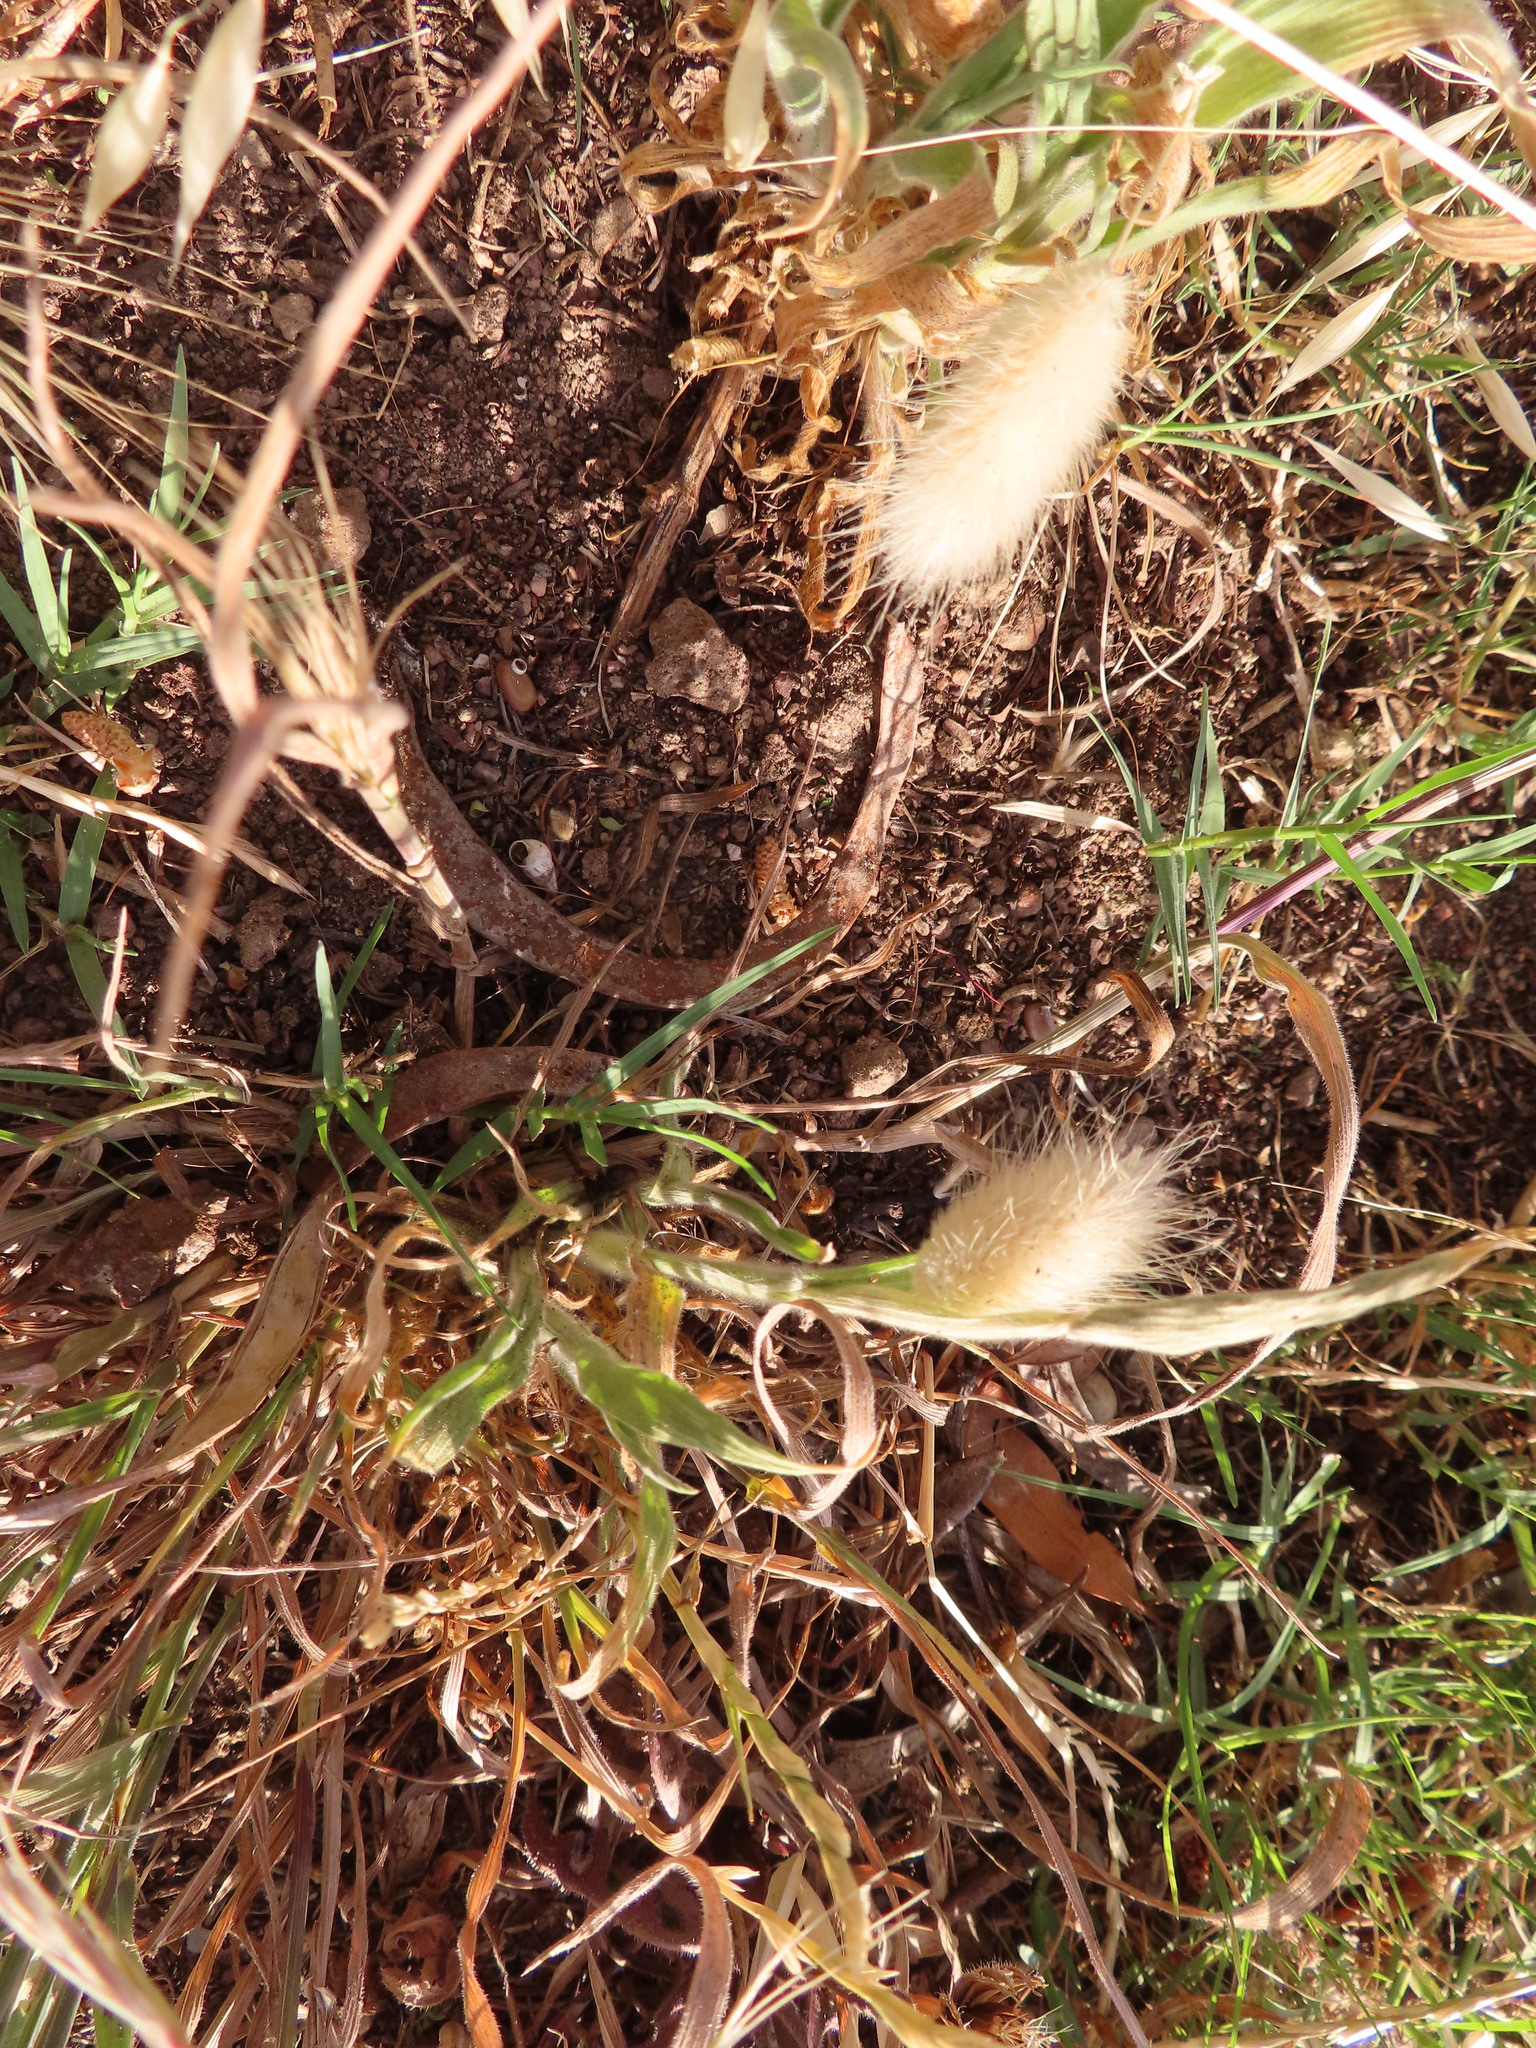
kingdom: Plantae
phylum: Tracheophyta
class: Liliopsida
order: Poales
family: Poaceae
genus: Lagurus
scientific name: Lagurus ovatus
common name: Hare's-tail
